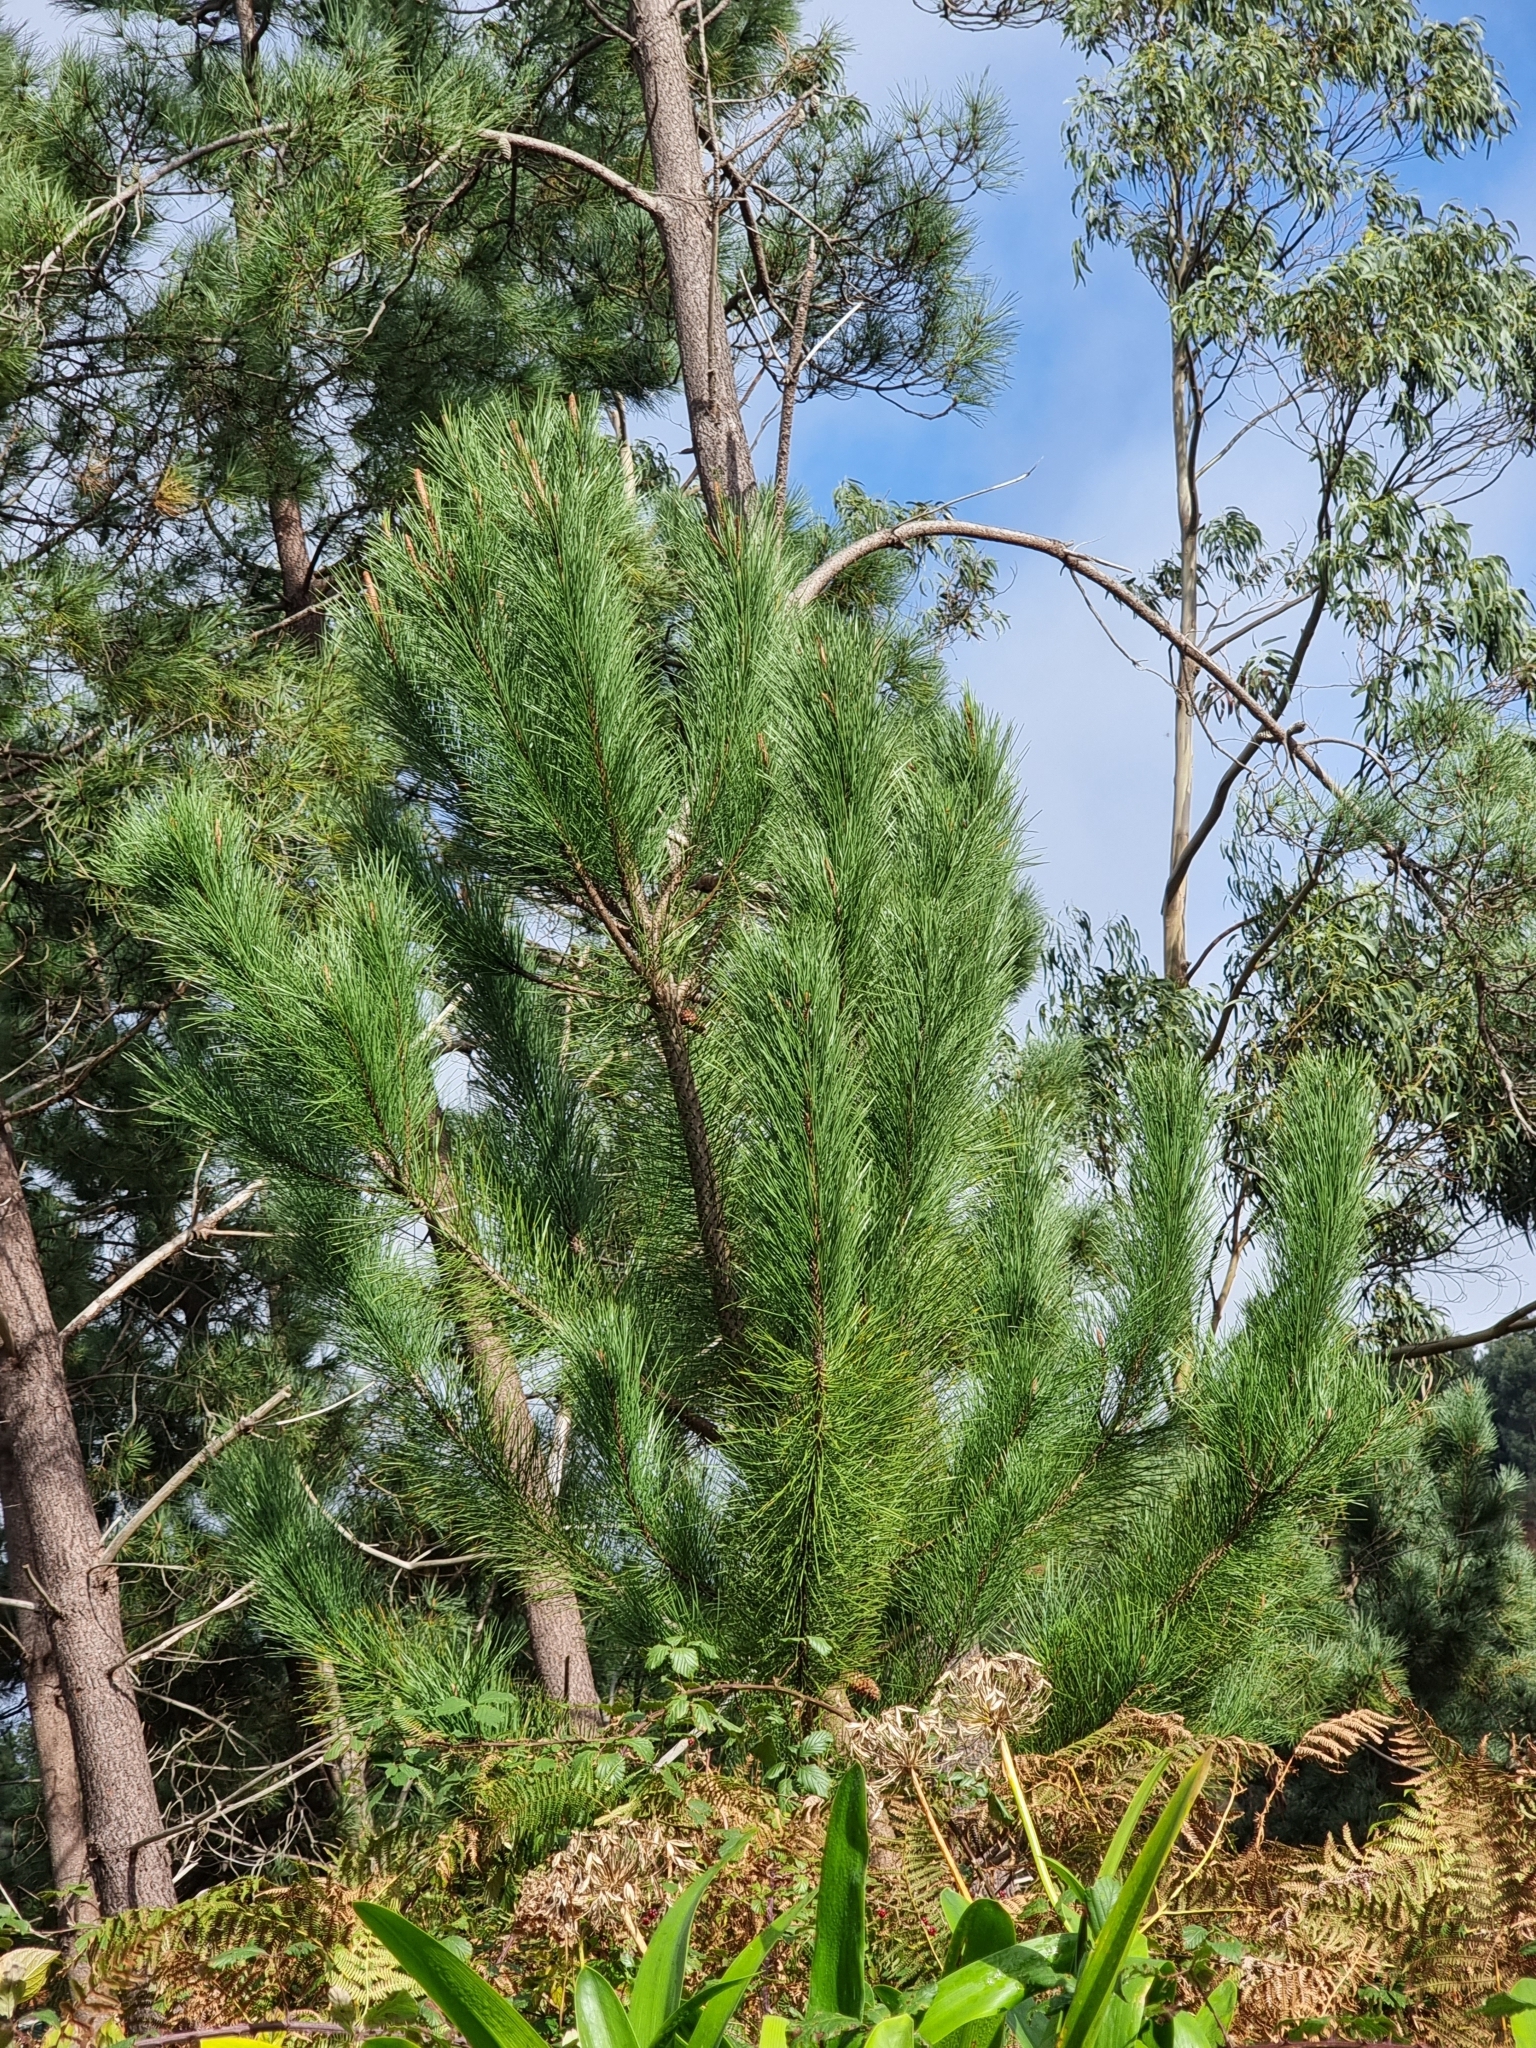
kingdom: Plantae
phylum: Tracheophyta
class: Pinopsida
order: Pinales
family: Pinaceae
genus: Pinus
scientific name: Pinus pinaster
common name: Maritime pine
